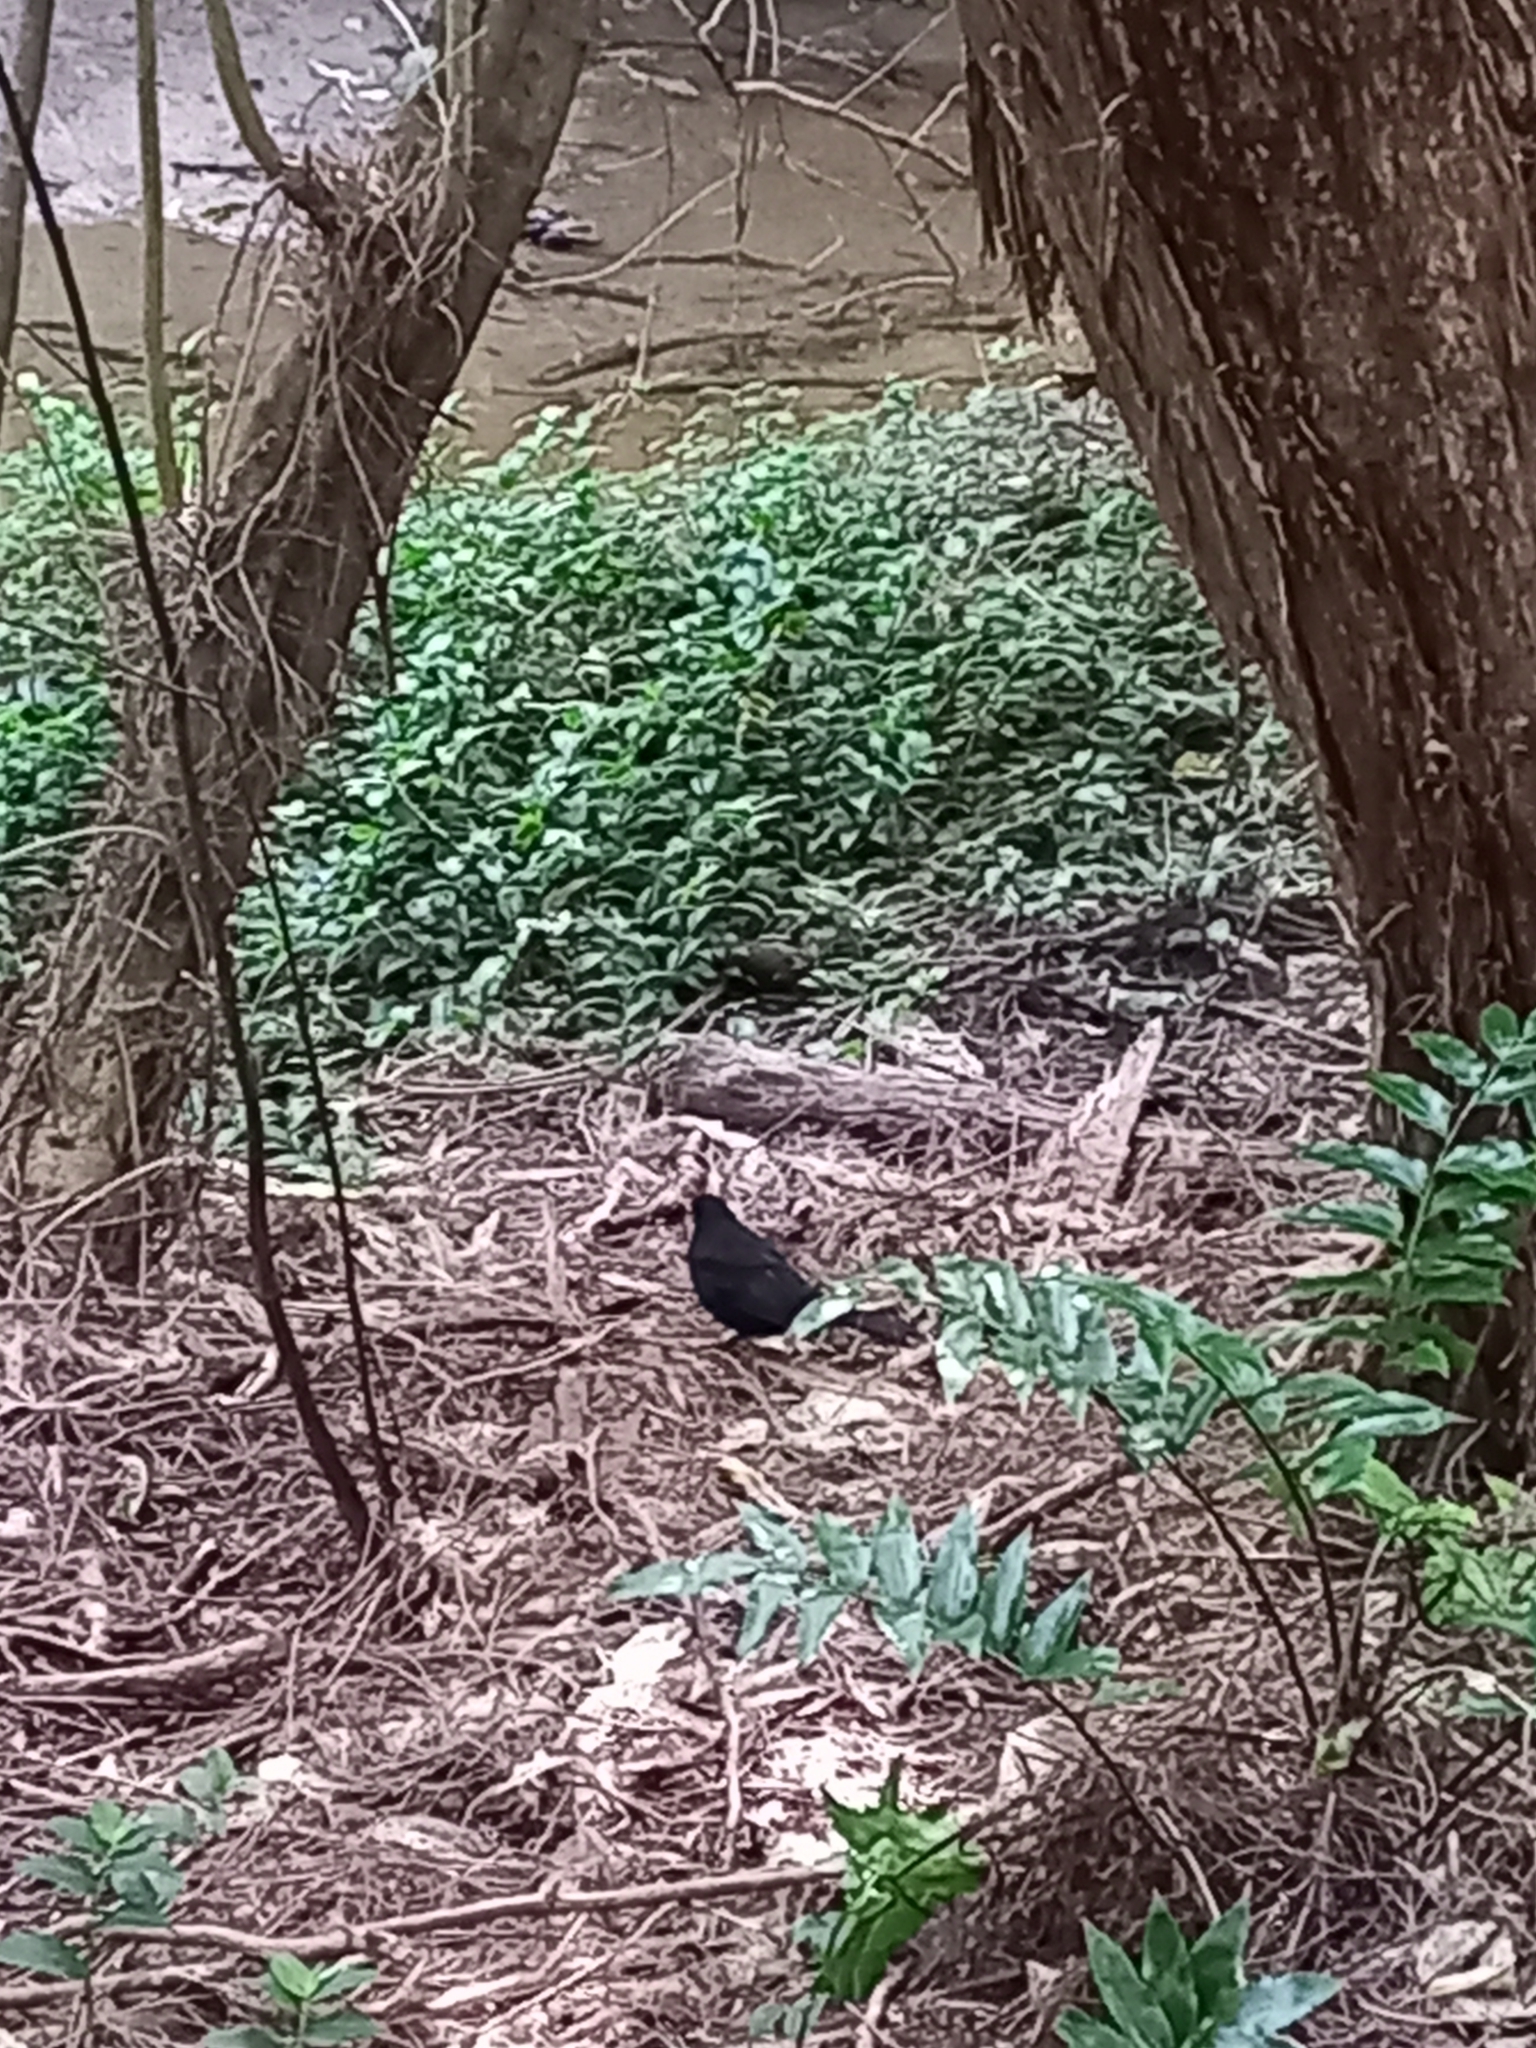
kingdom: Animalia
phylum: Chordata
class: Aves
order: Passeriformes
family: Turdidae
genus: Turdus
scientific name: Turdus merula
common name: Common blackbird
